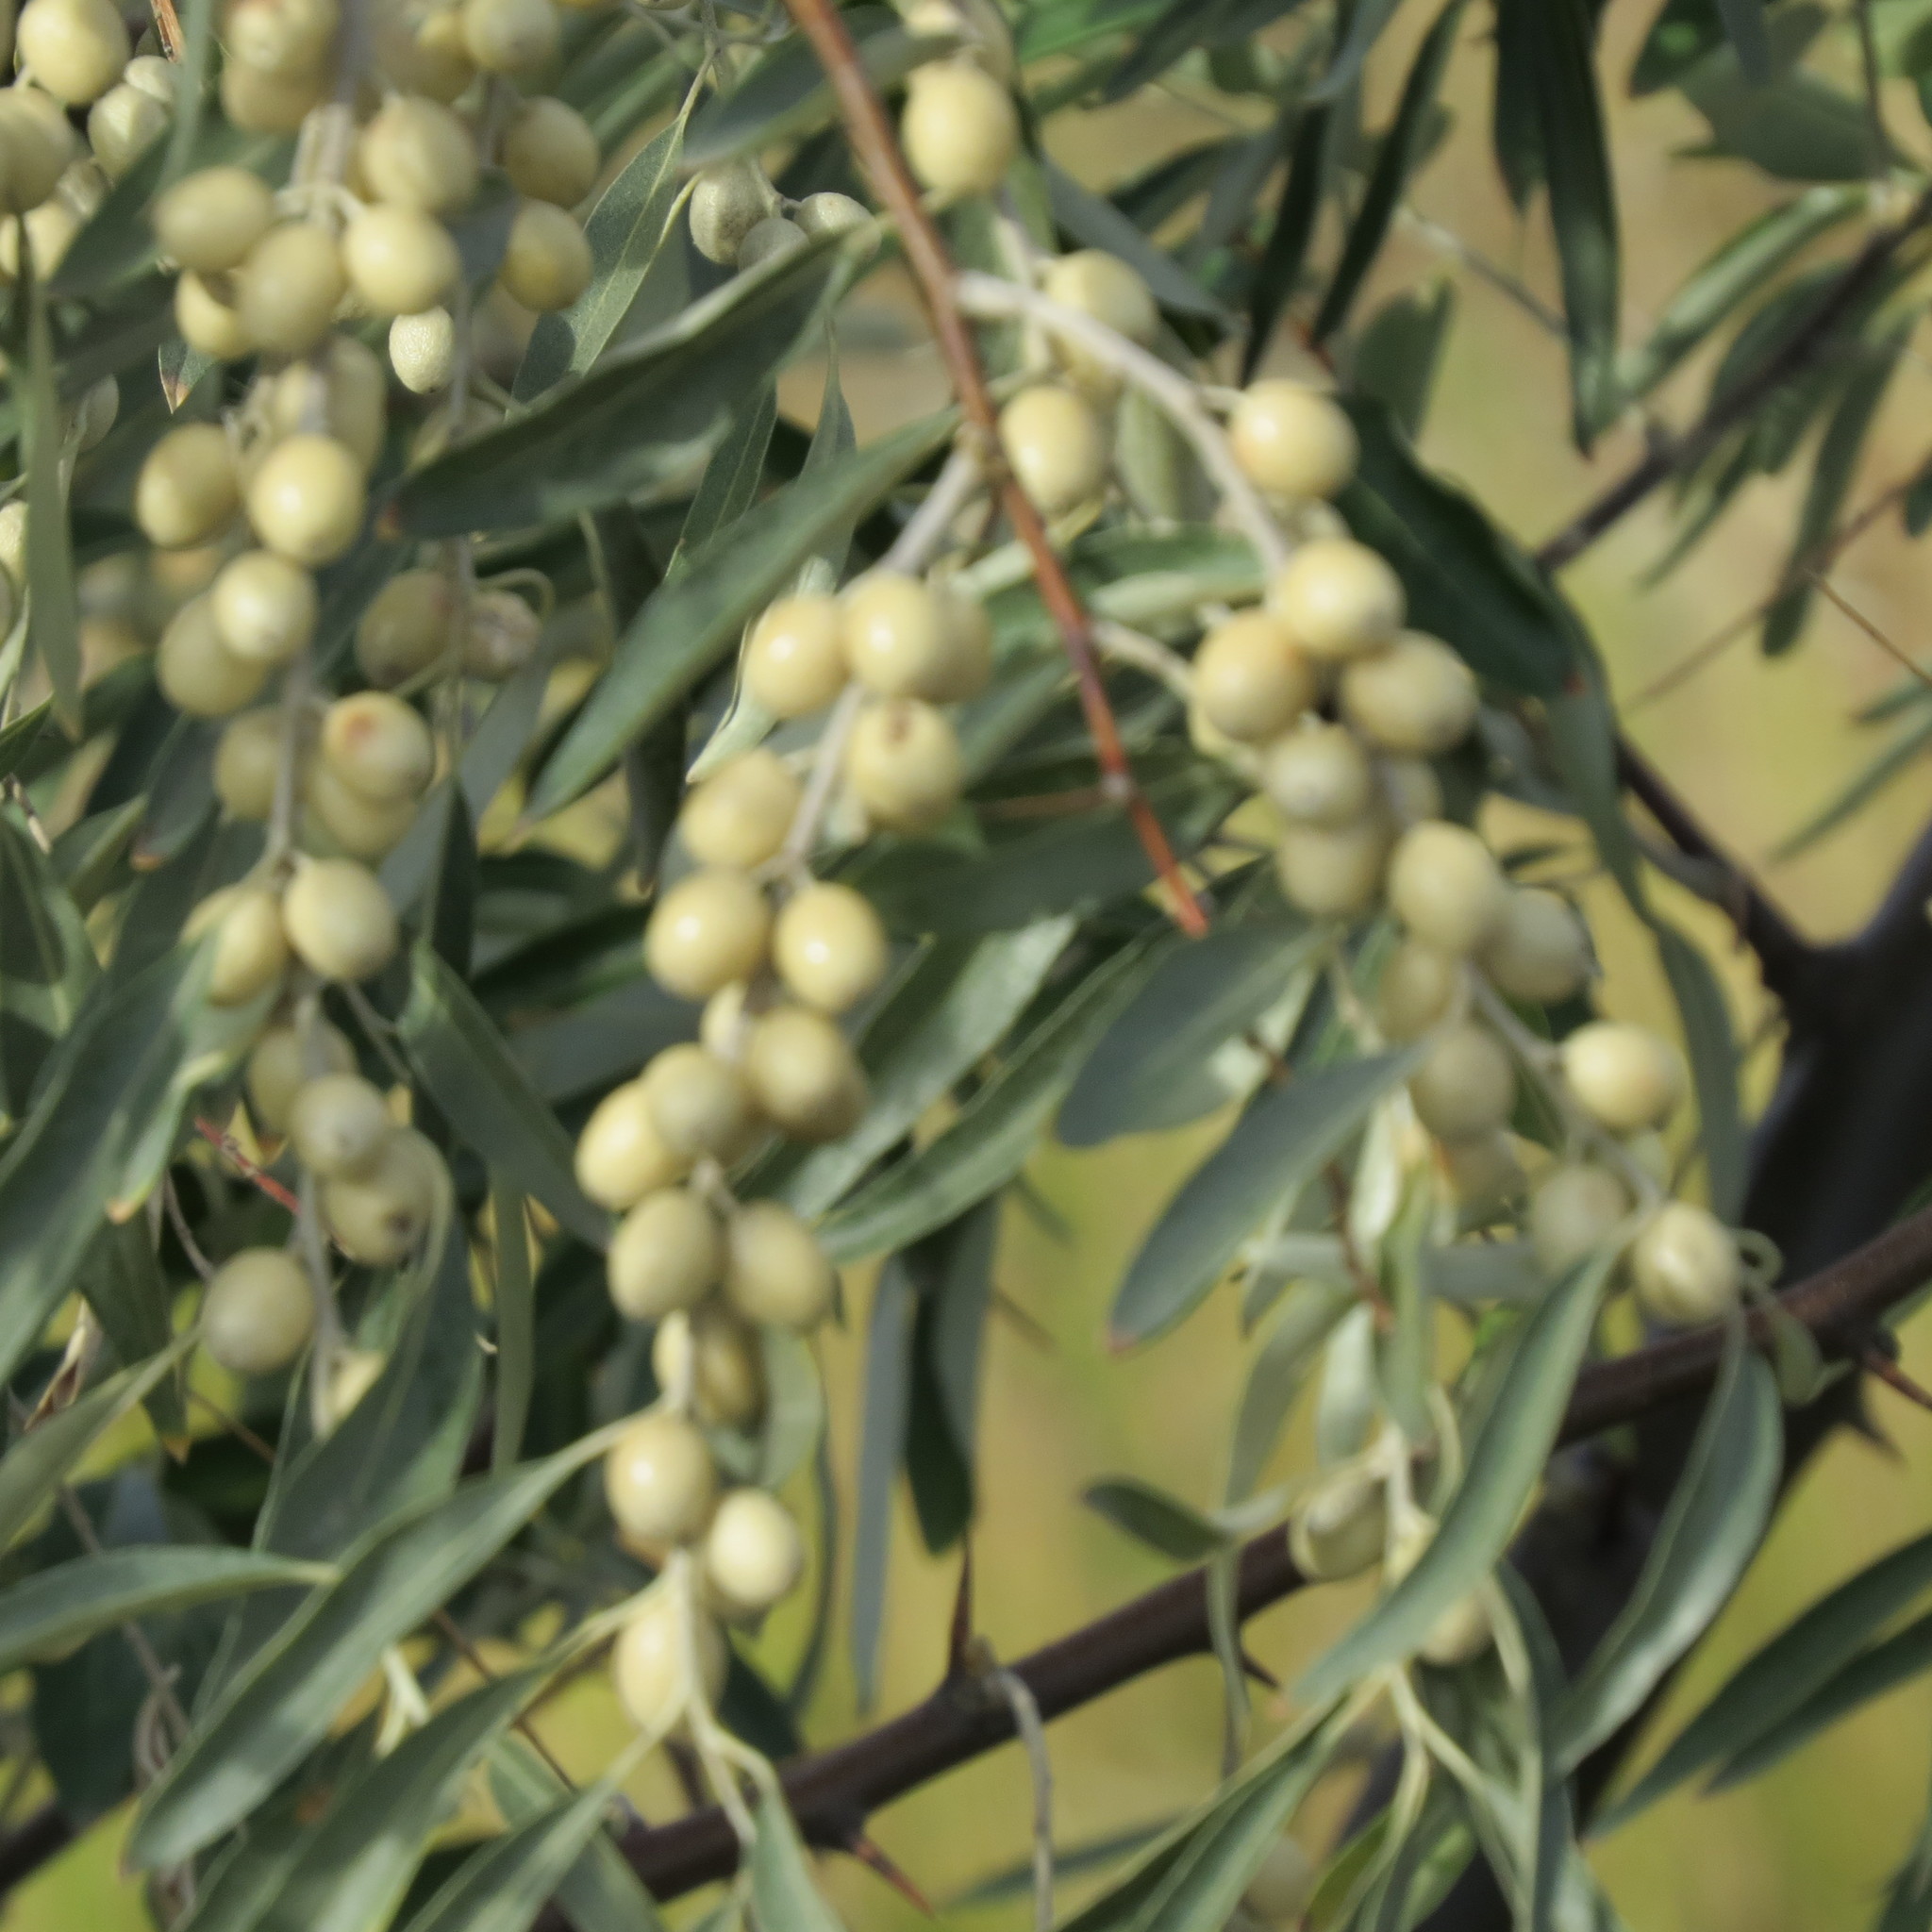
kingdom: Plantae
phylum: Tracheophyta
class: Magnoliopsida
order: Rosales
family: Elaeagnaceae
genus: Elaeagnus
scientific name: Elaeagnus angustifolia
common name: Russian olive
